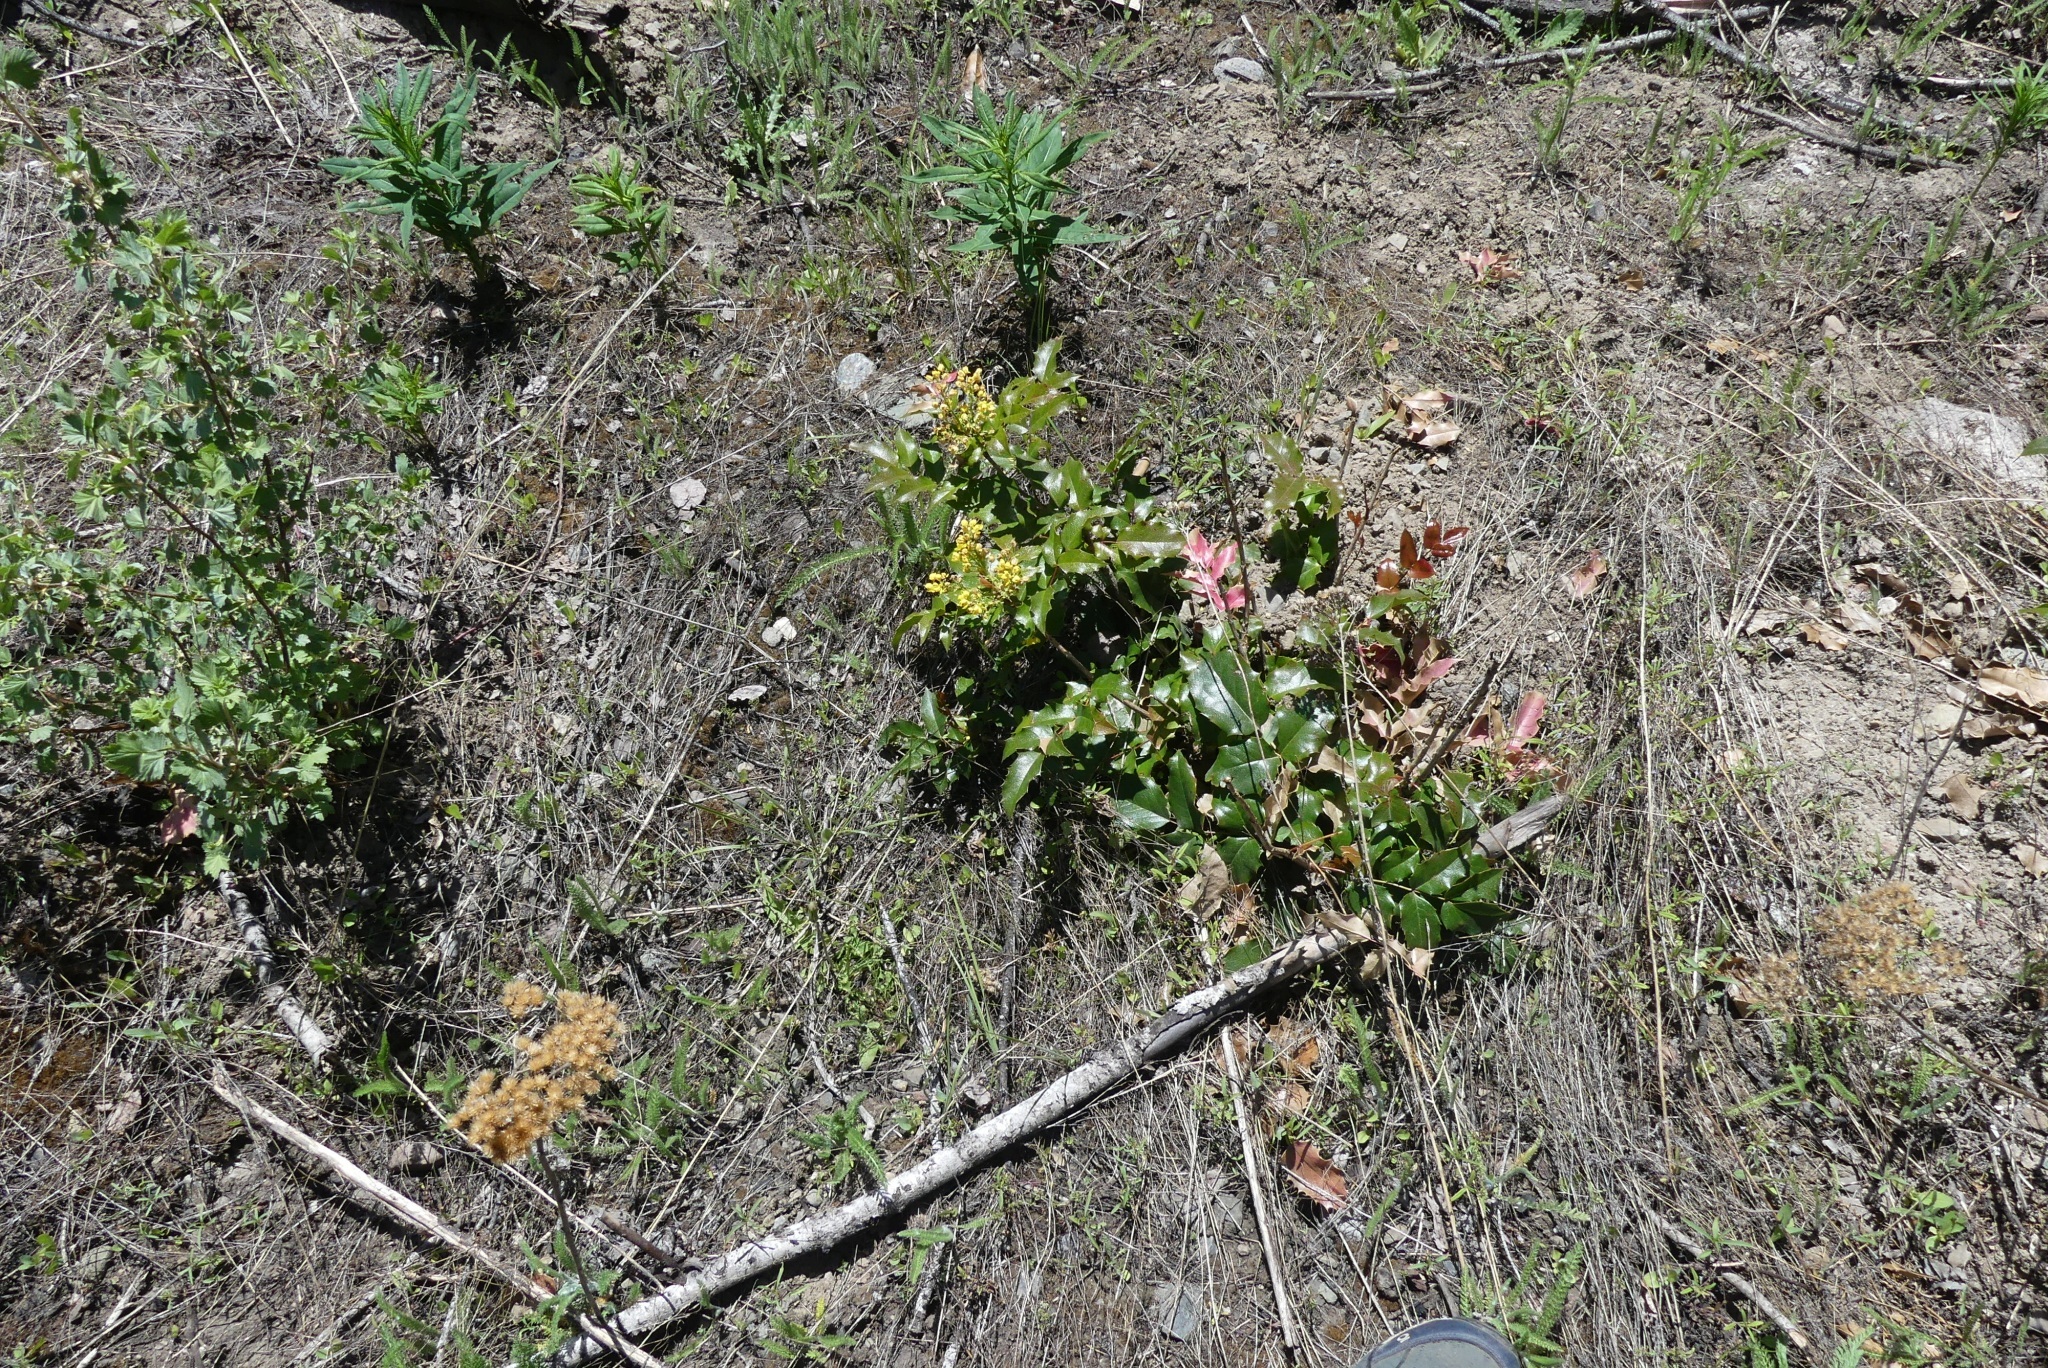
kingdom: Plantae
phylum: Tracheophyta
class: Magnoliopsida
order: Ranunculales
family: Berberidaceae
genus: Mahonia
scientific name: Mahonia aquifolium
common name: Oregon-grape
